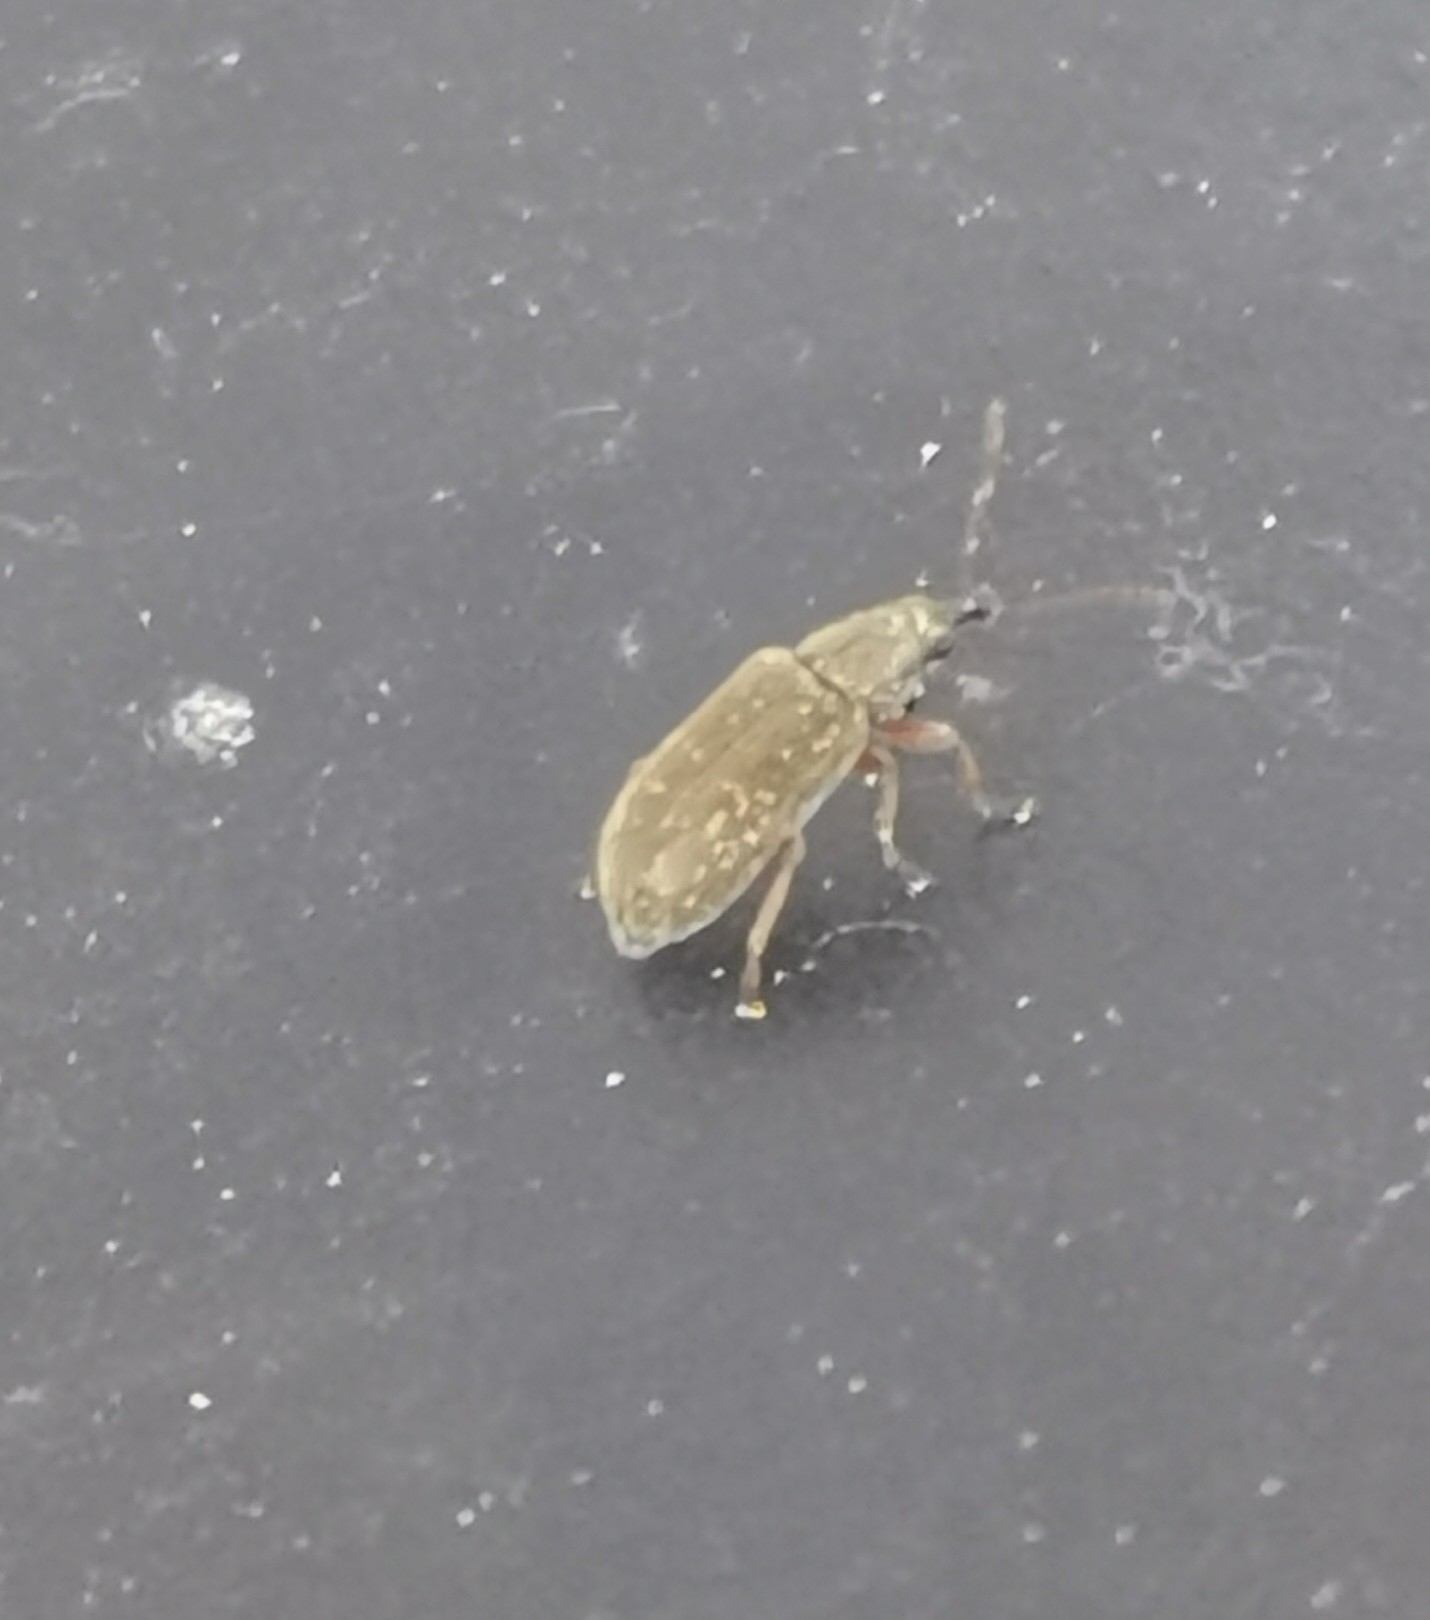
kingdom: Animalia
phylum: Arthropoda
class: Insecta
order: Coleoptera
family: Nemonychidae
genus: Cimberis
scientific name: Cimberis attelaboides
